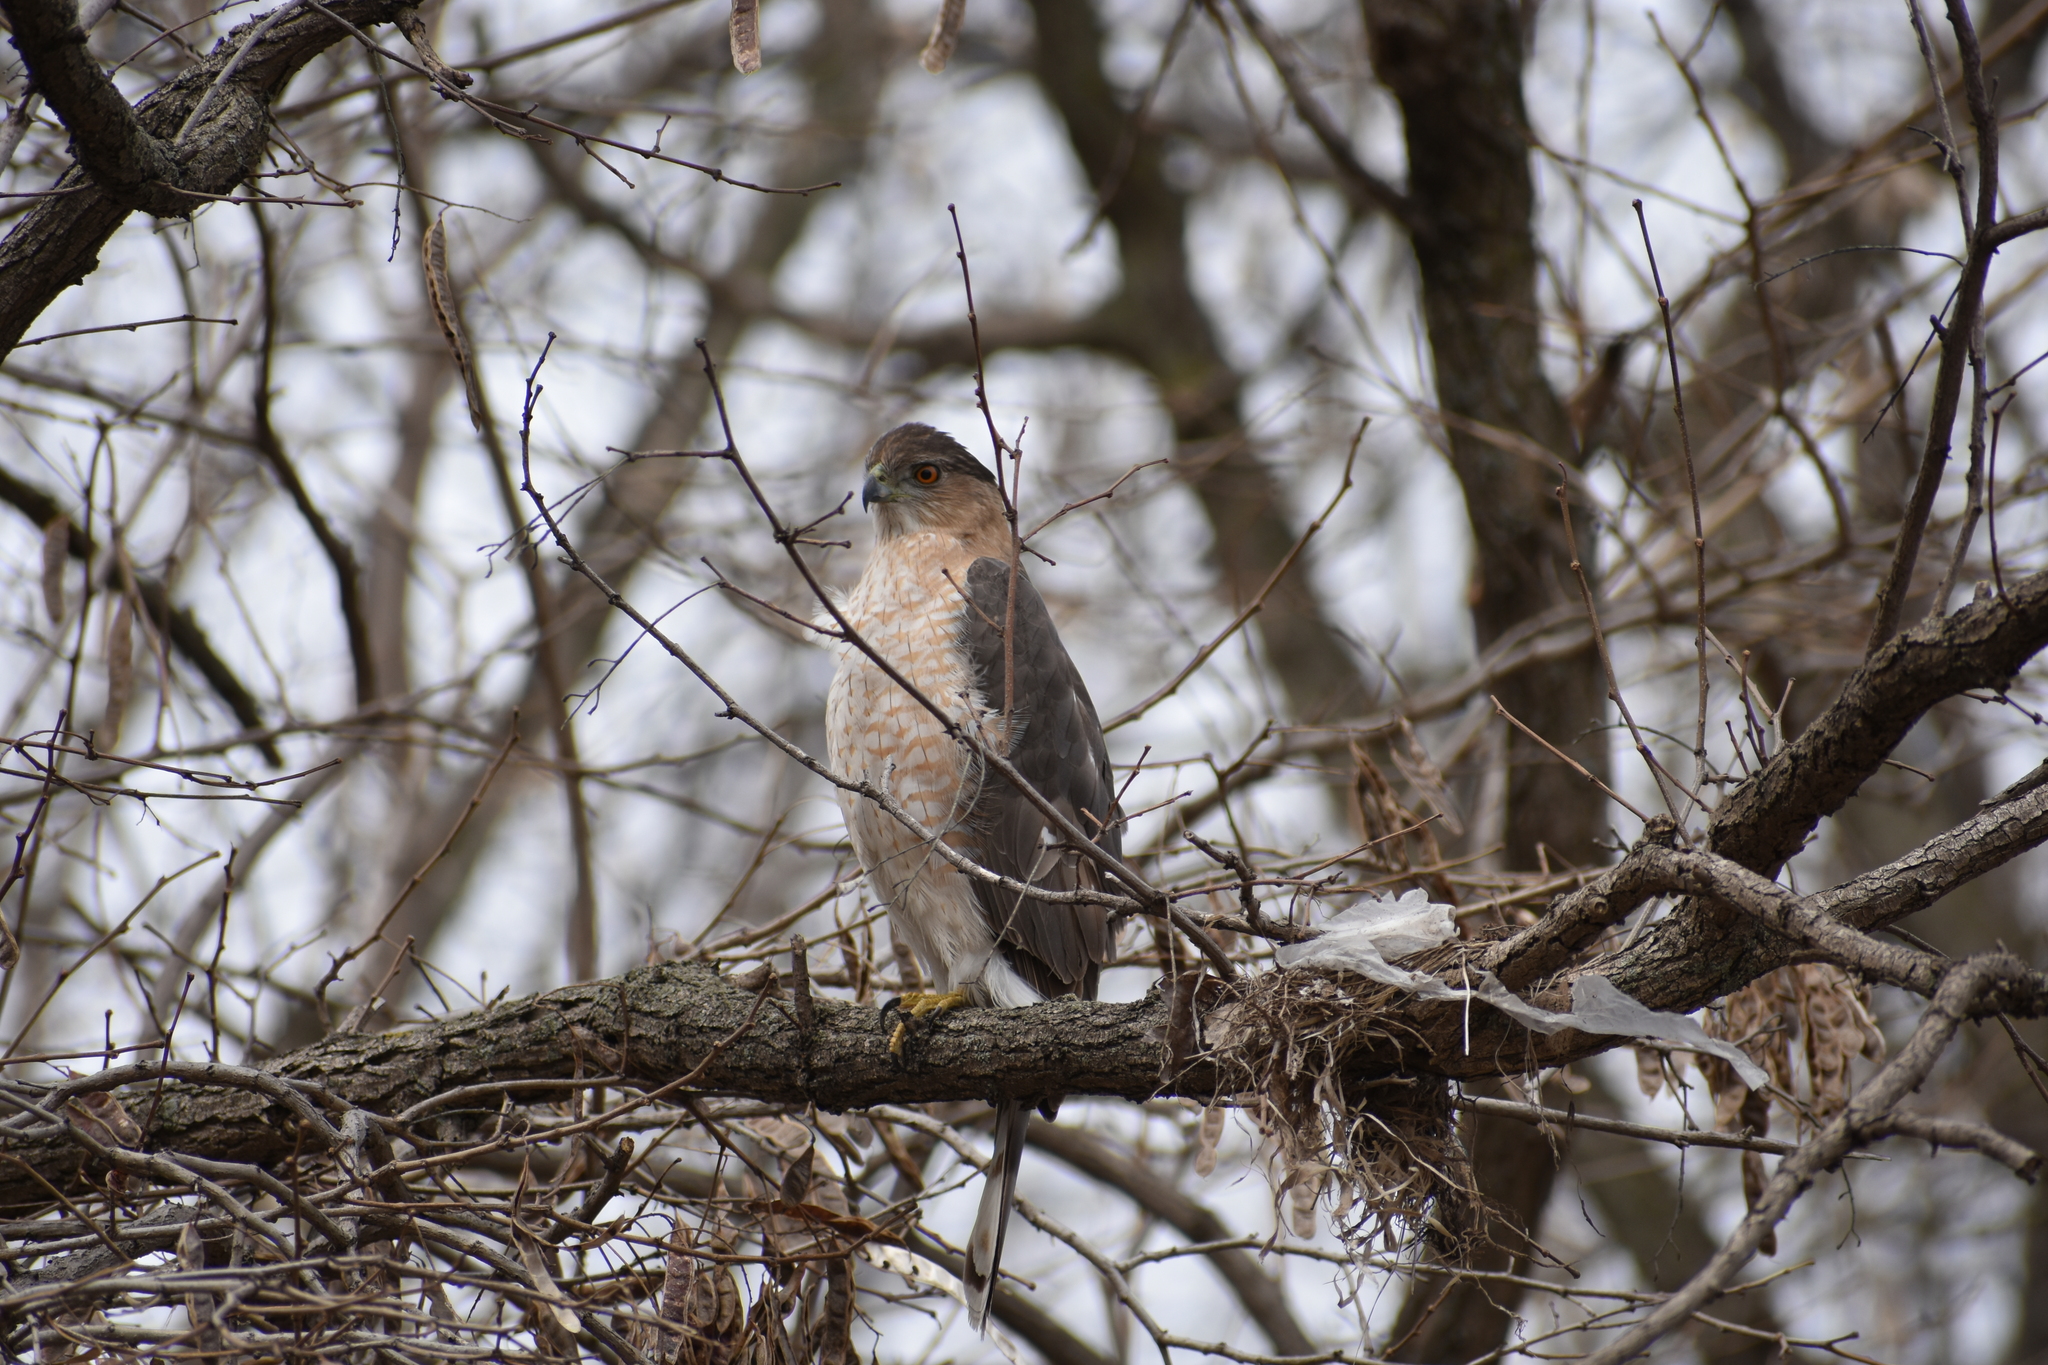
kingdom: Animalia
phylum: Chordata
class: Aves
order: Accipitriformes
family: Accipitridae
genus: Accipiter
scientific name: Accipiter cooperii
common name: Cooper's hawk
